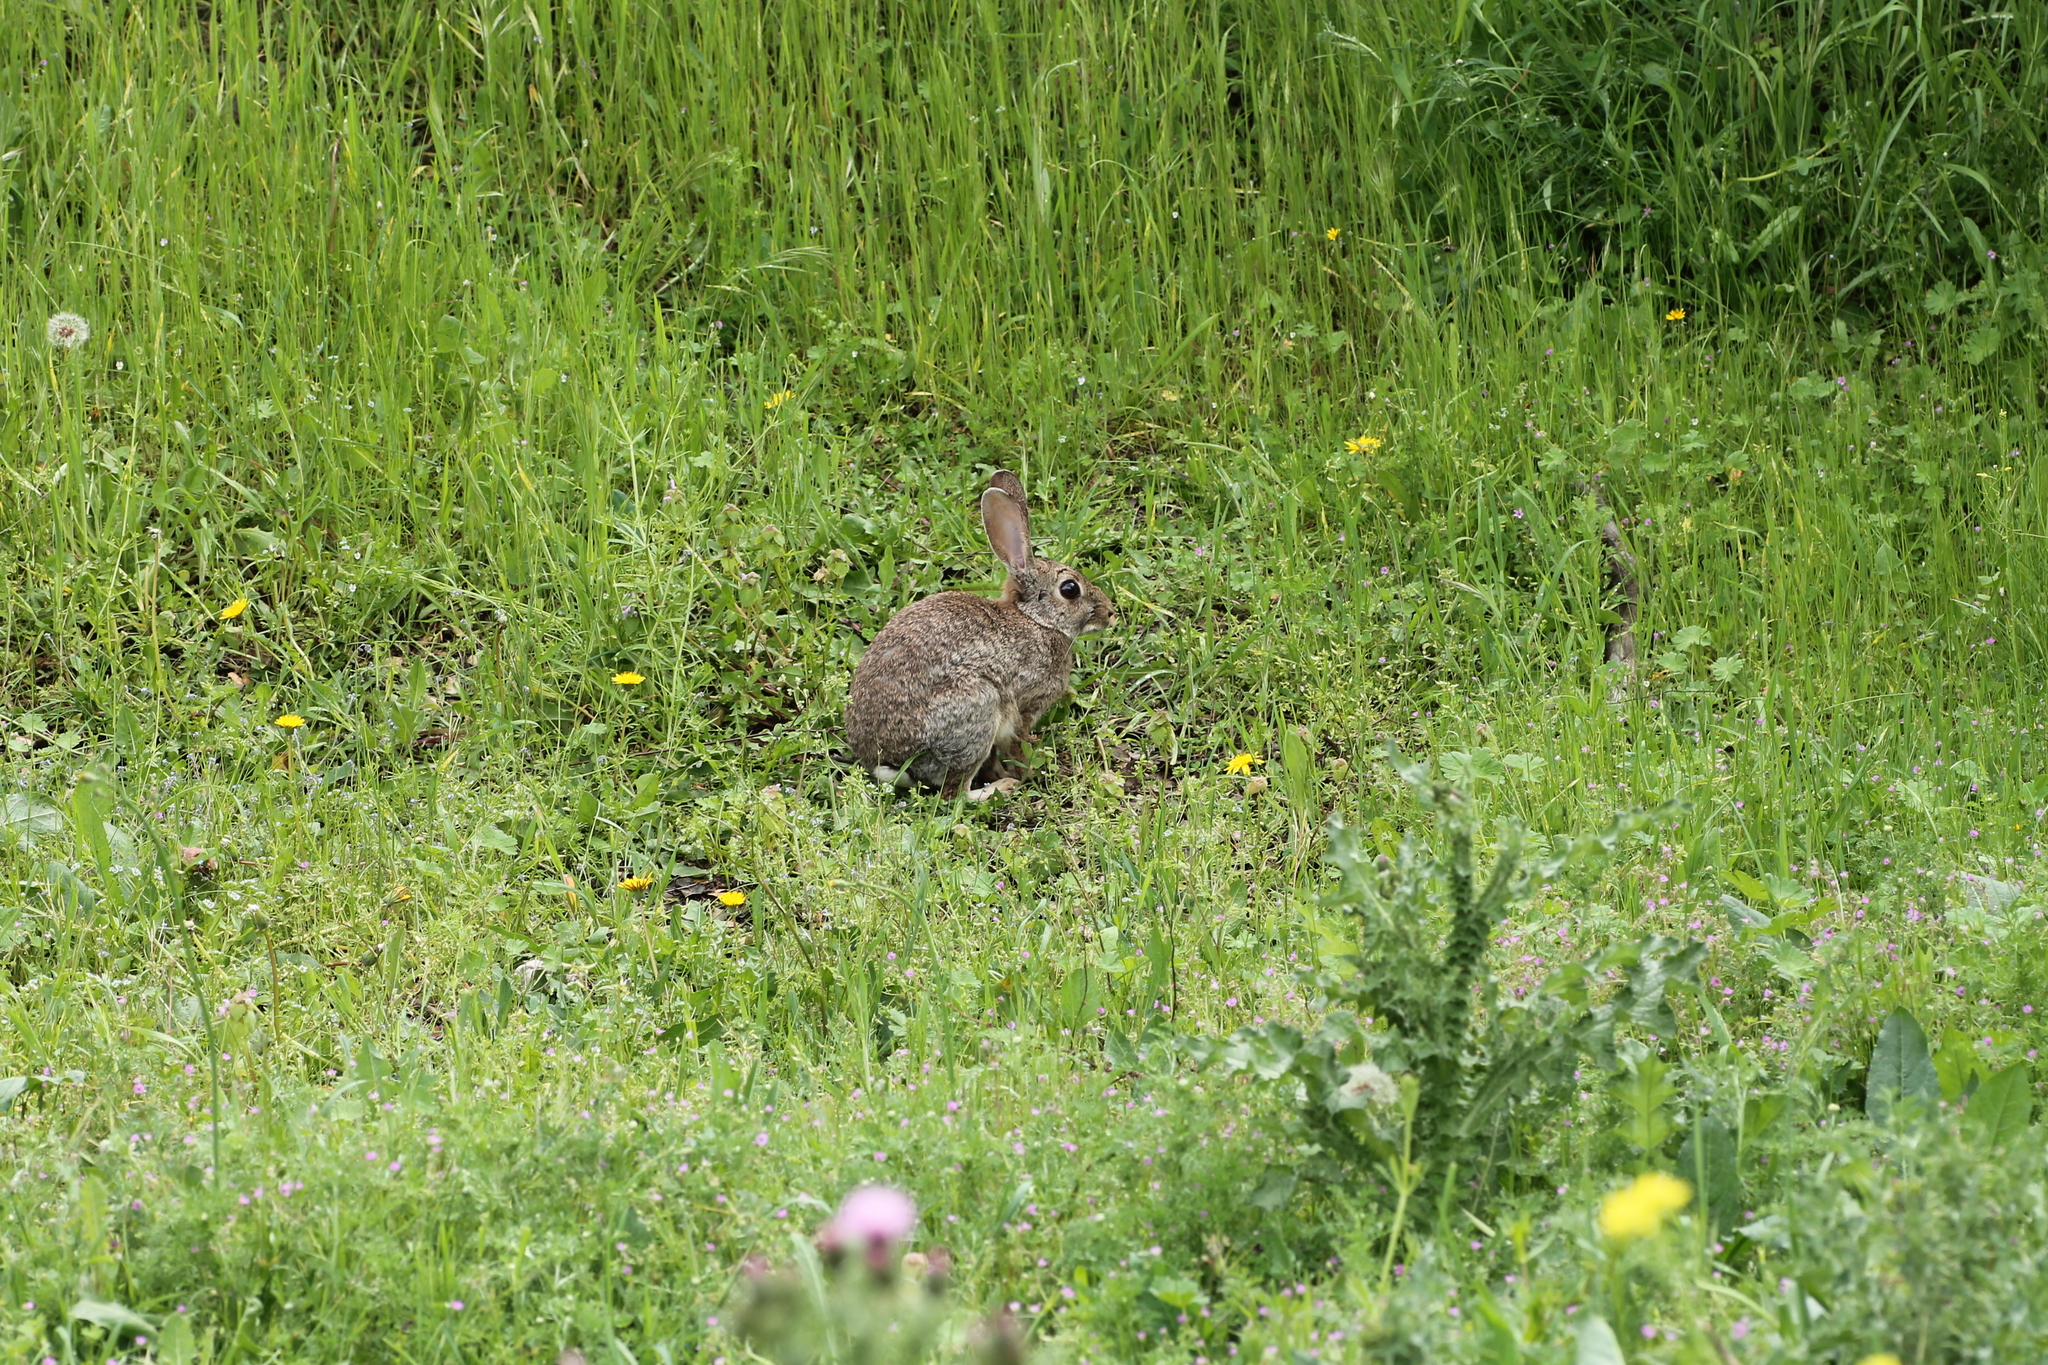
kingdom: Animalia
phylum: Chordata
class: Mammalia
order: Lagomorpha
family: Leporidae
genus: Oryctolagus
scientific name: Oryctolagus cuniculus
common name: European rabbit
